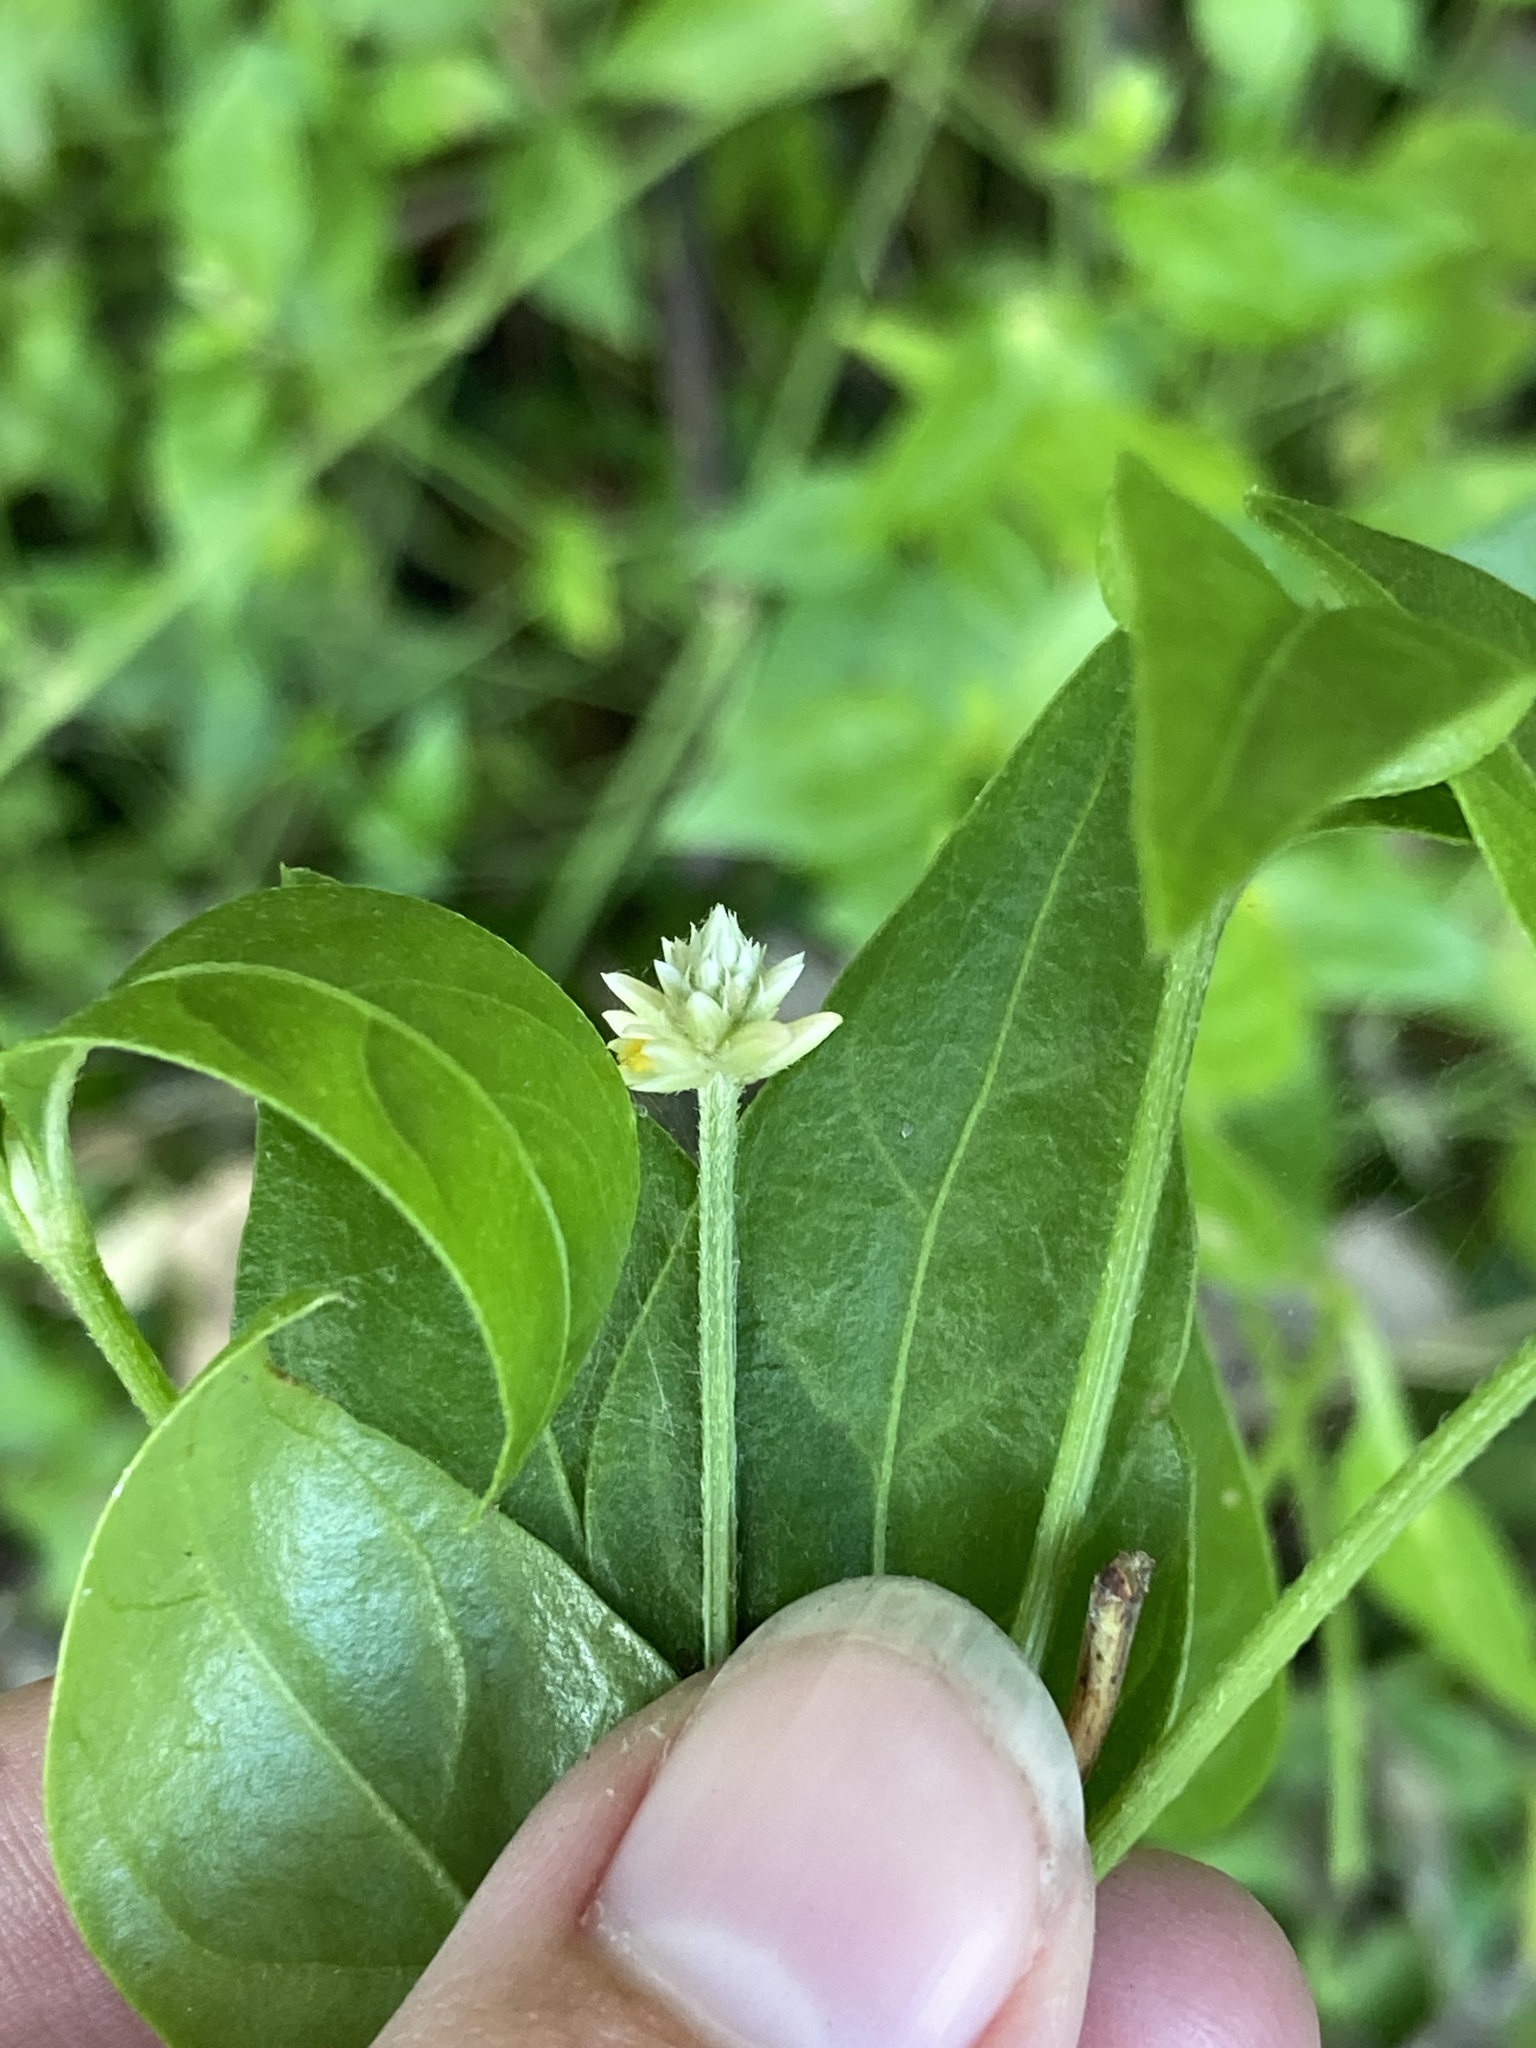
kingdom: Plantae
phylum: Tracheophyta
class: Magnoliopsida
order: Caryophyllales
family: Amaranthaceae
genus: Alternanthera
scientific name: Alternanthera flavescens
